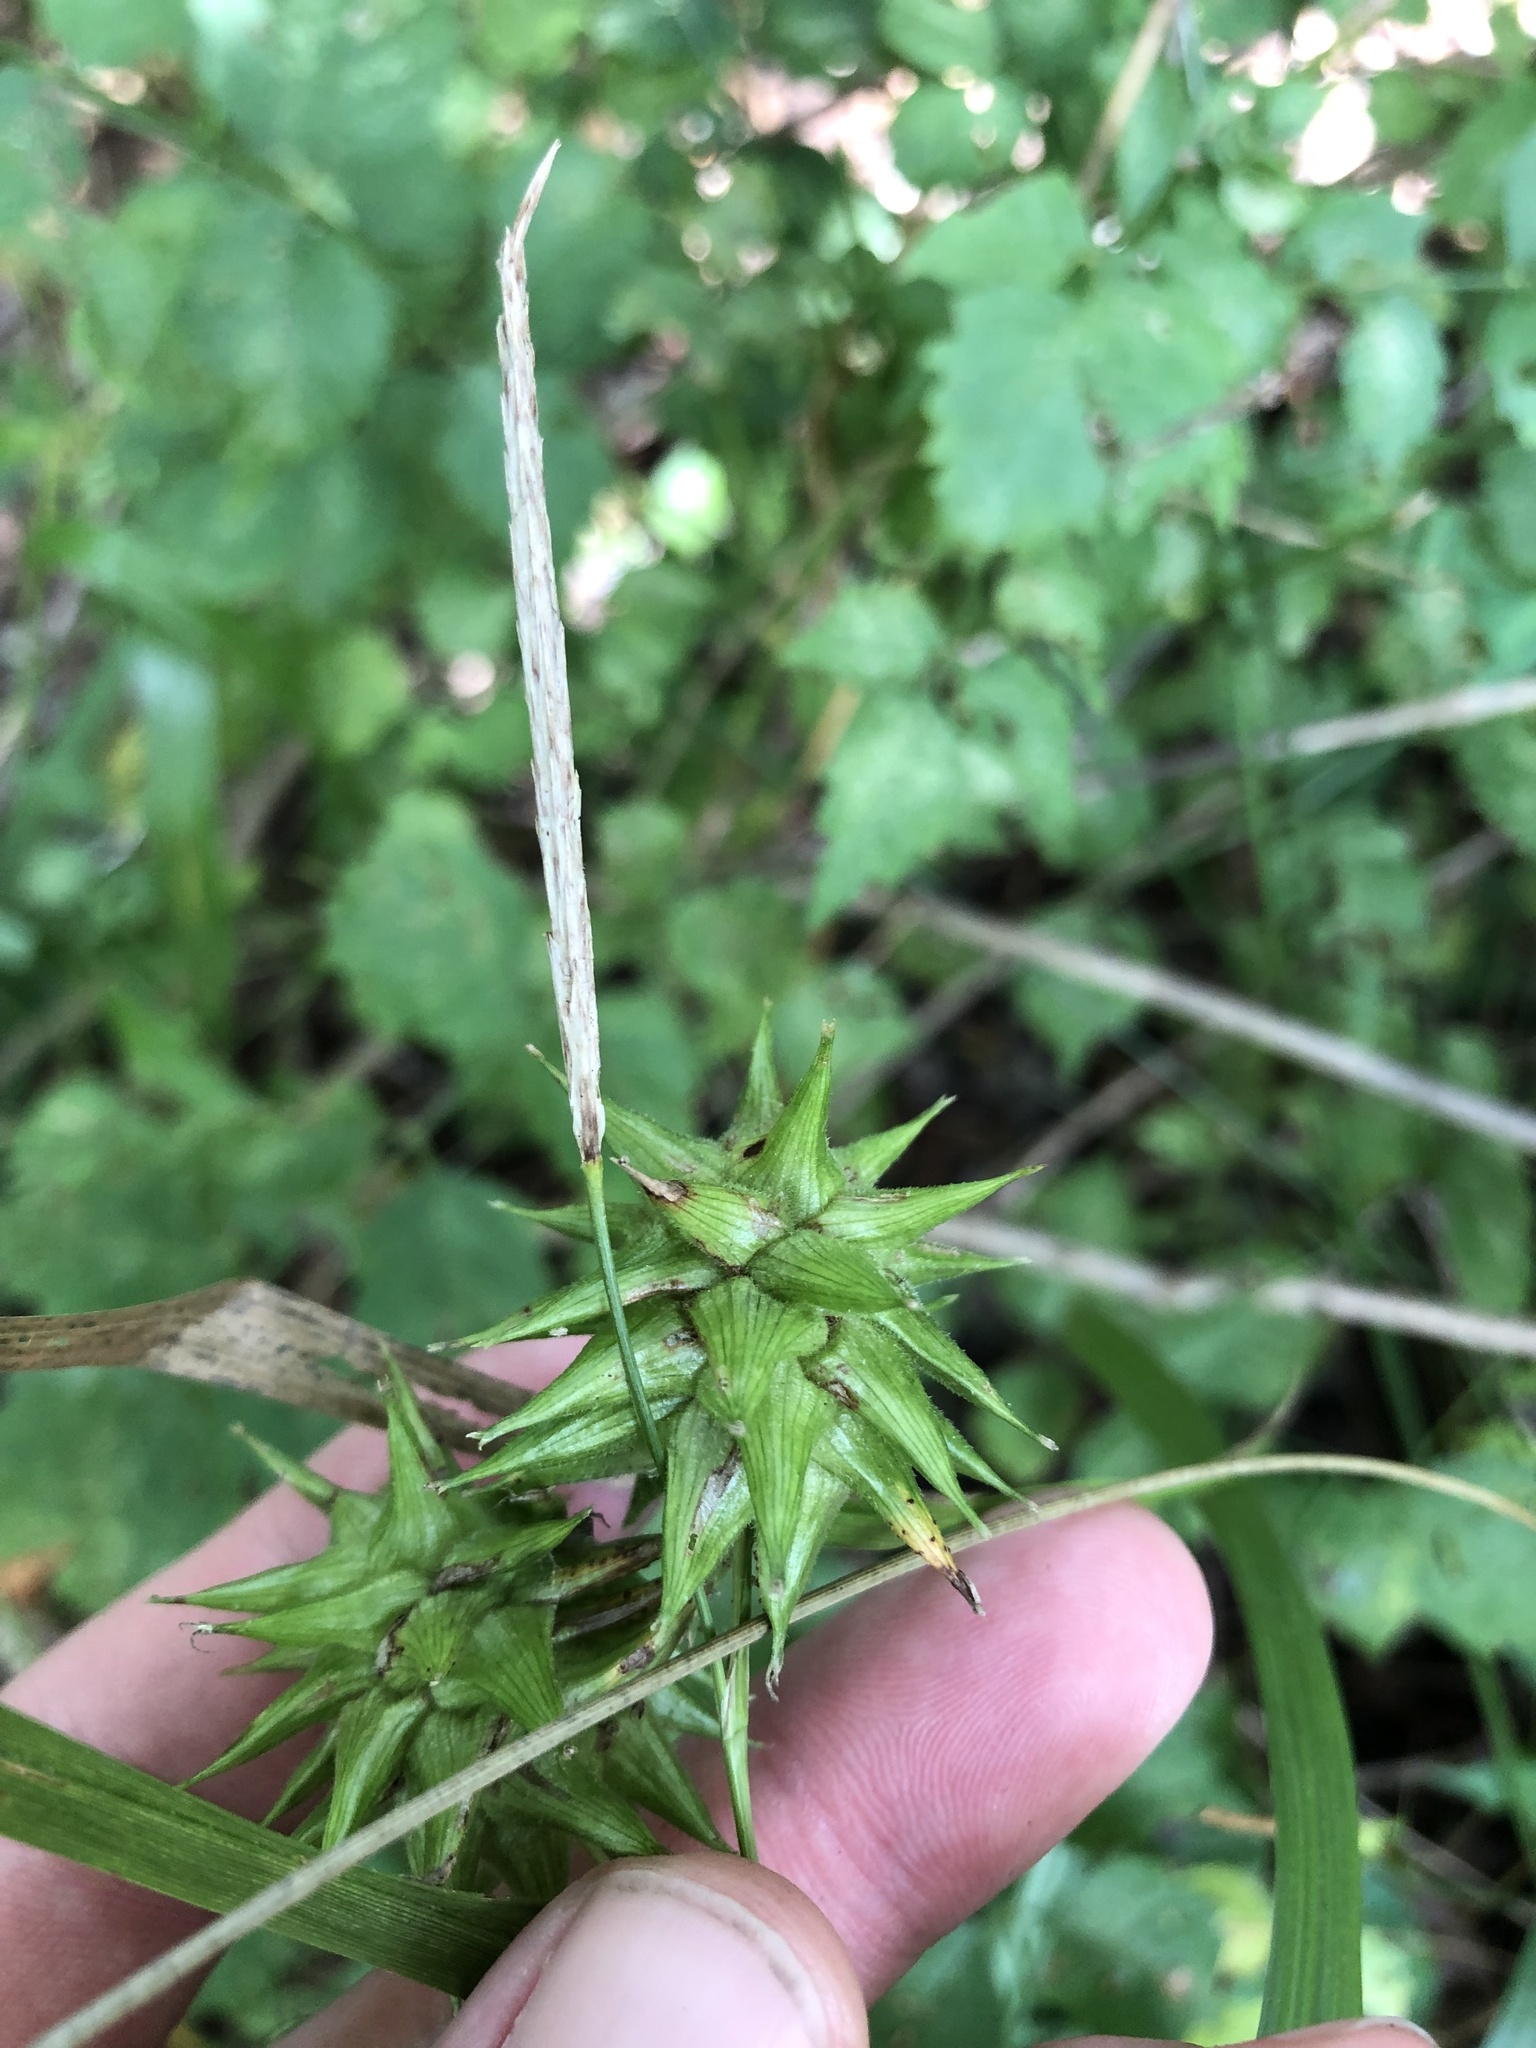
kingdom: Plantae
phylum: Tracheophyta
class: Liliopsida
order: Poales
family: Cyperaceae
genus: Carex
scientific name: Carex grayi
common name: Asa gray's sedge
